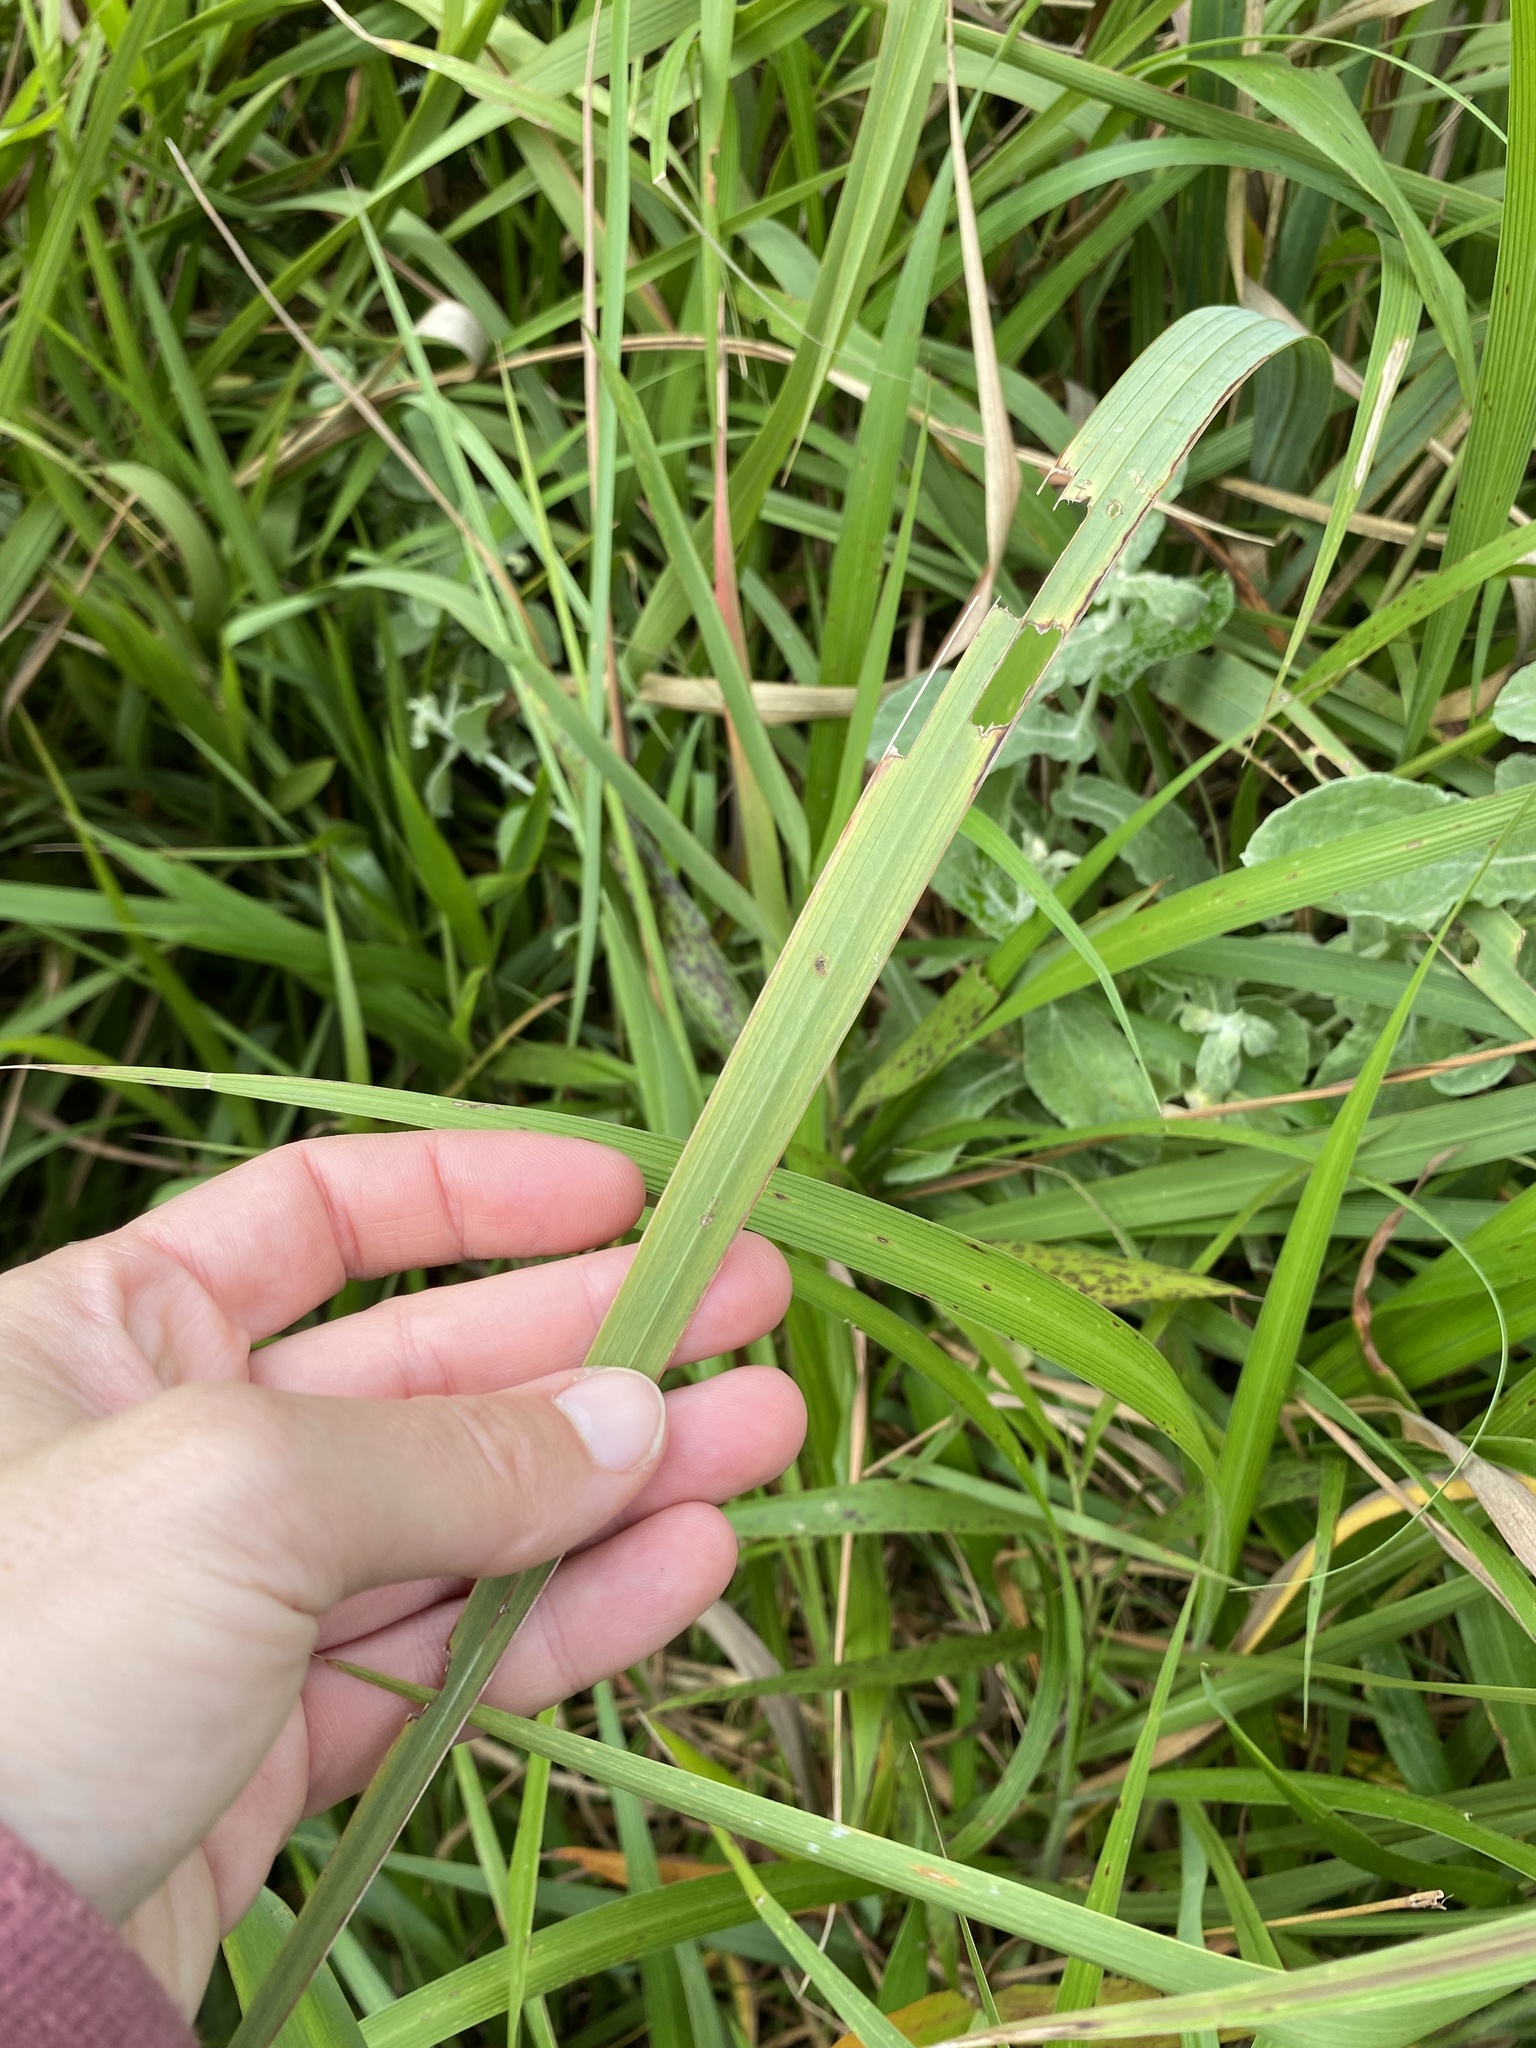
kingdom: Plantae
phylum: Tracheophyta
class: Liliopsida
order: Asparagales
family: Iridaceae
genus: Gladiolus
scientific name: Gladiolus dalenii
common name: Cornflag
